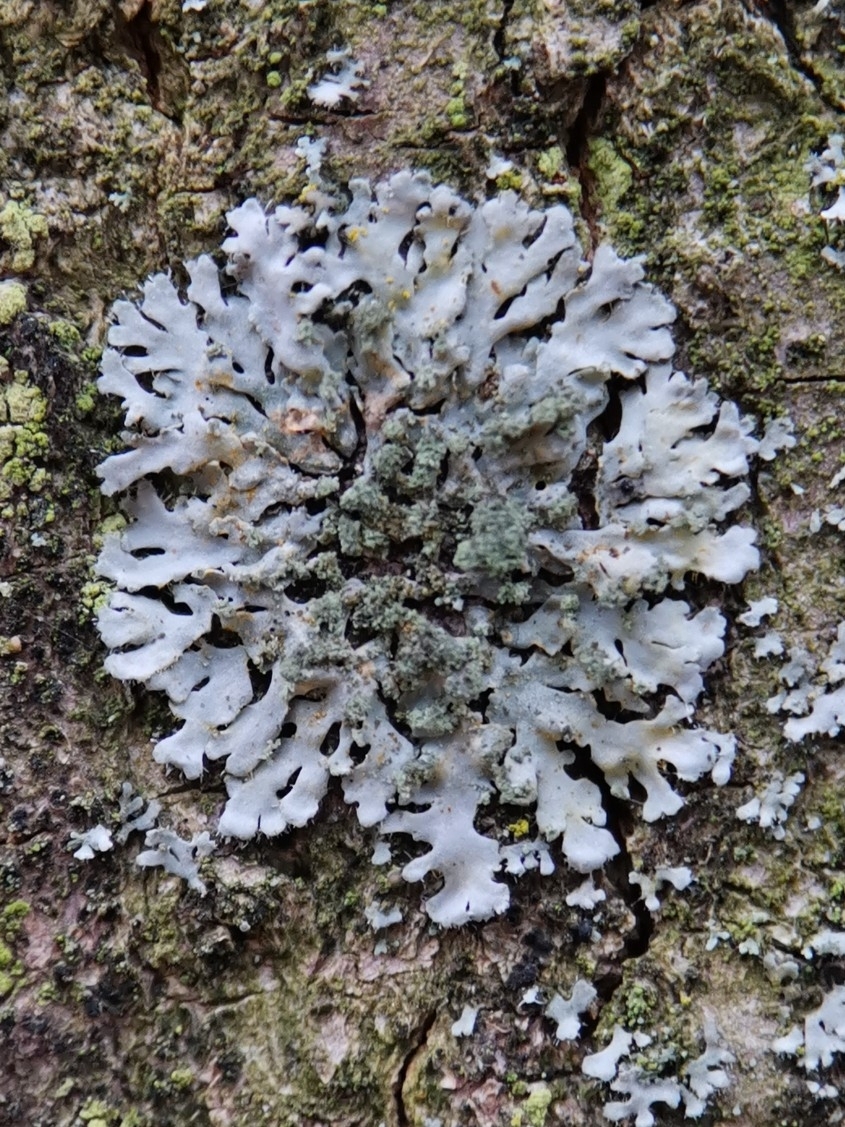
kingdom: Fungi
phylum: Ascomycota
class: Lecanoromycetes
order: Caliciales
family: Physciaceae
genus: Phaeophyscia
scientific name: Phaeophyscia orbicularis
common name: Mealy shadow lichen
